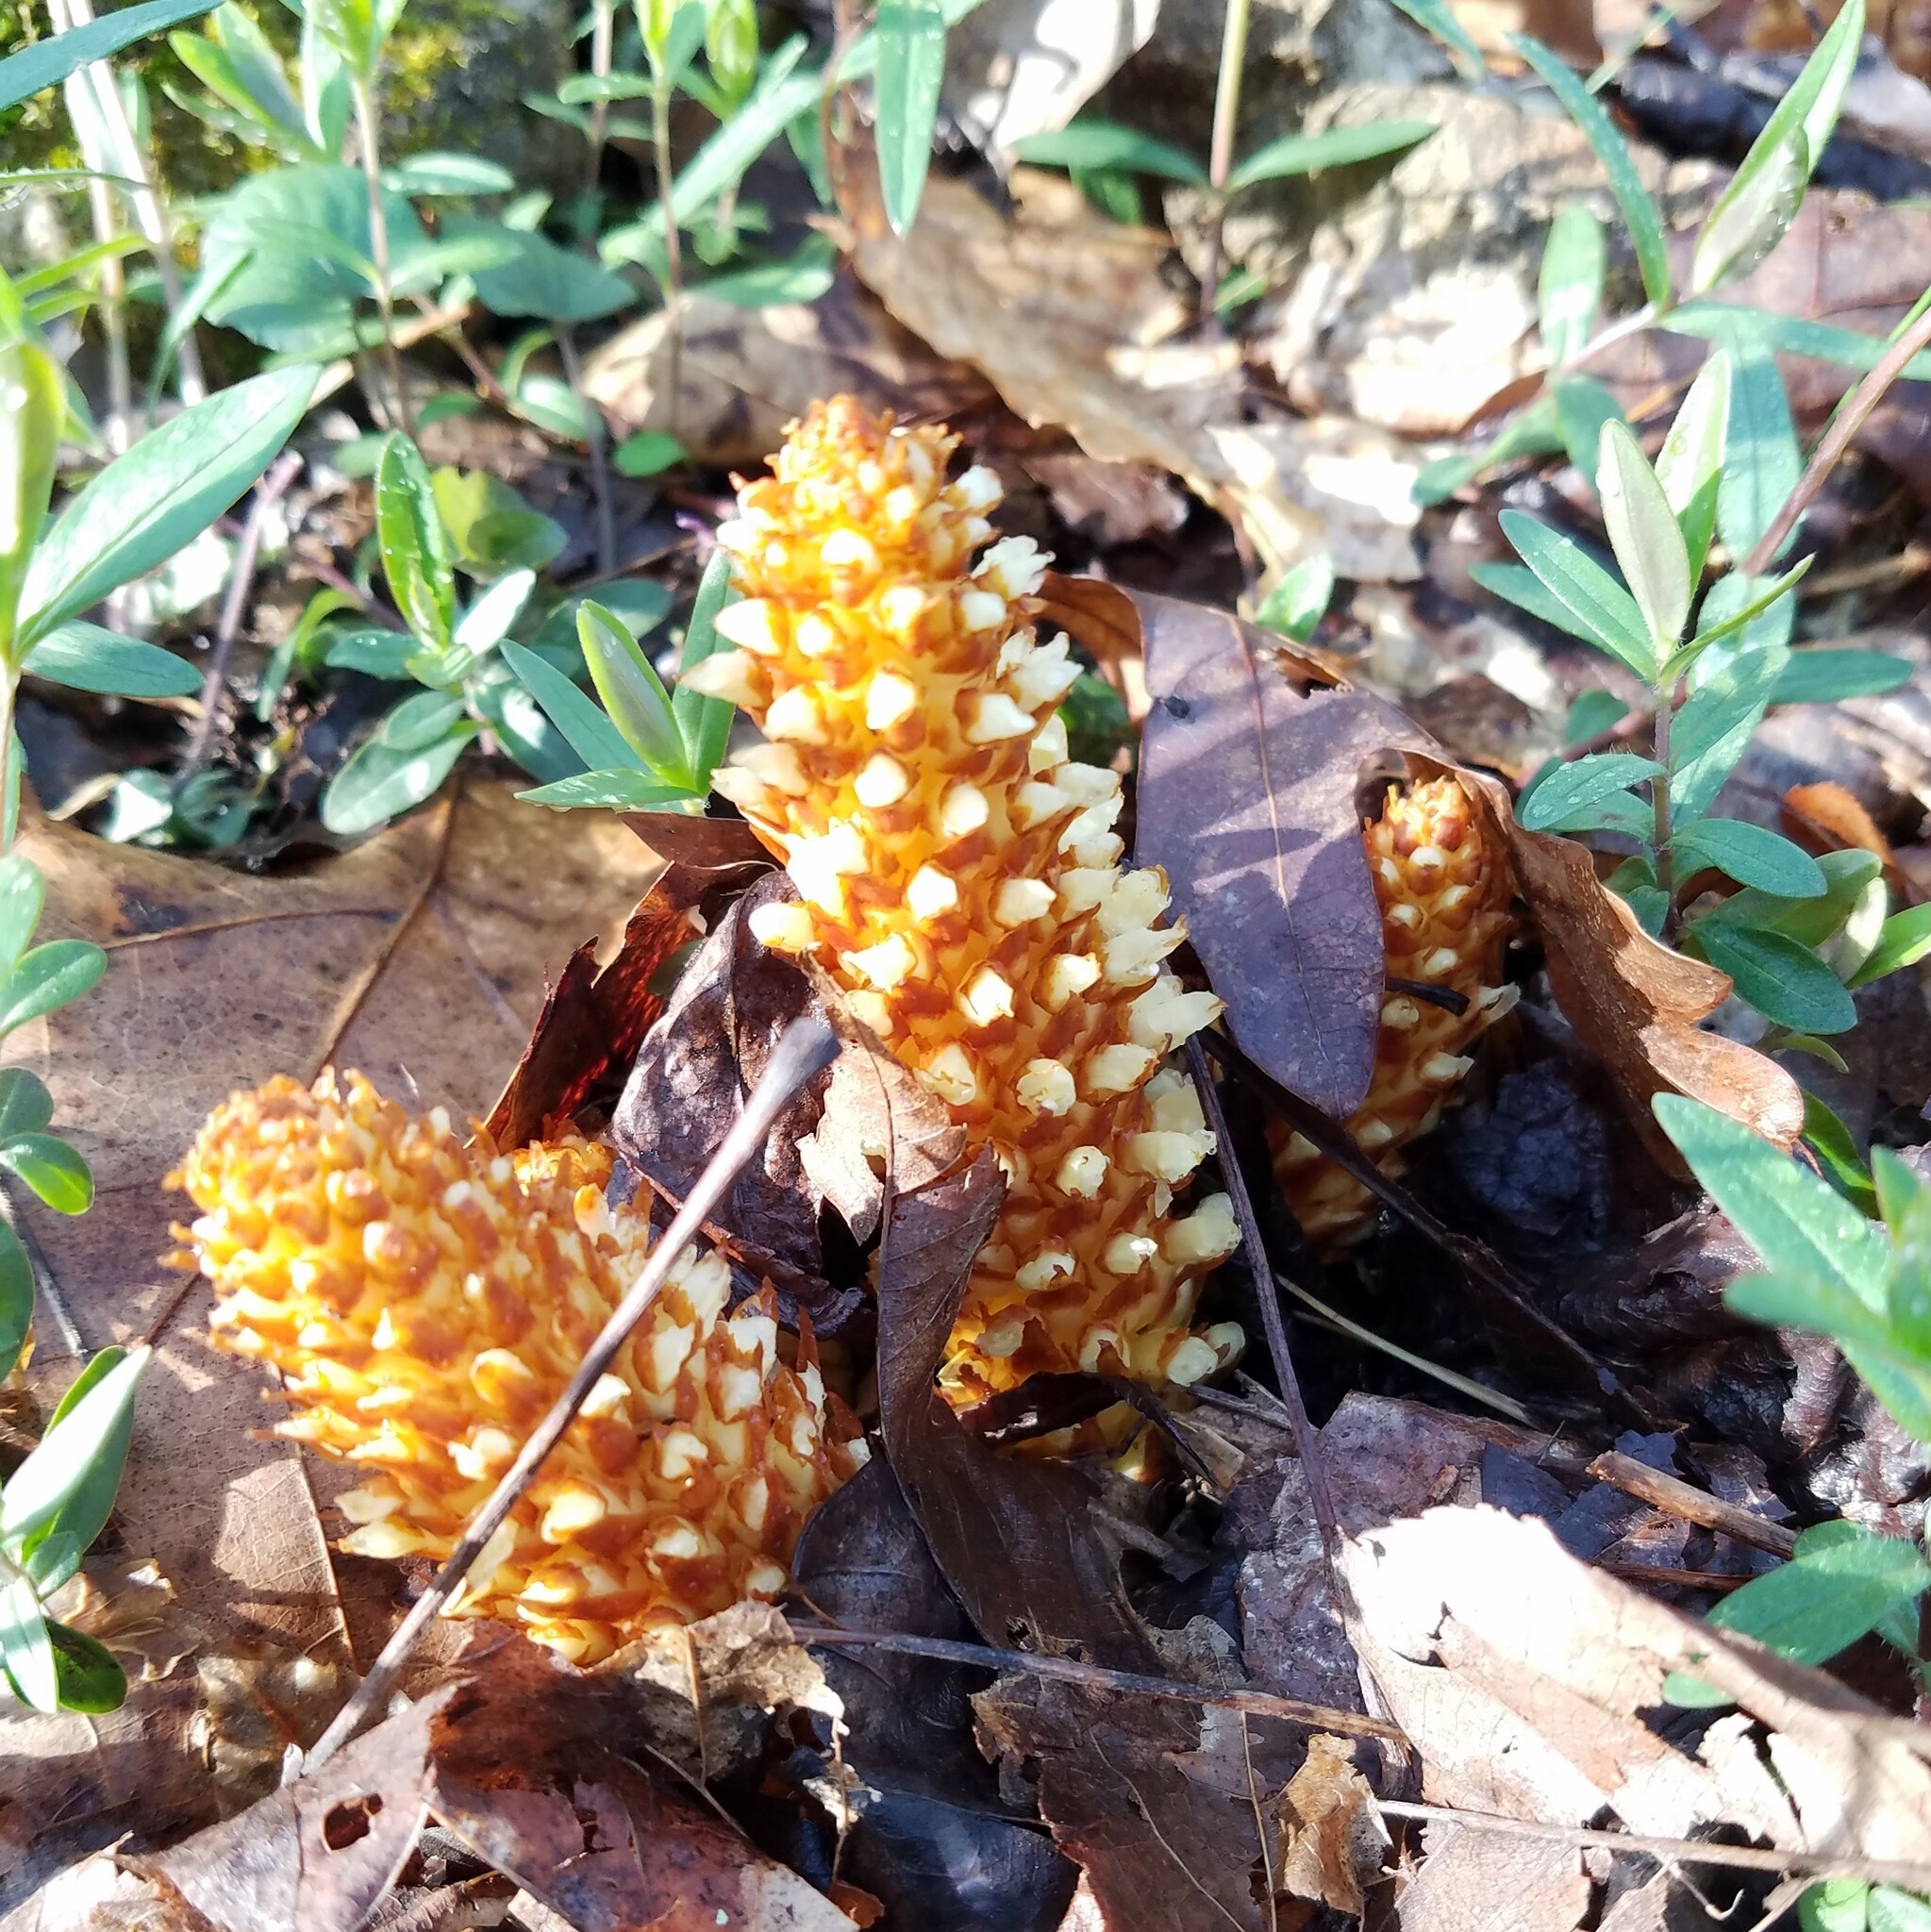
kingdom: Plantae
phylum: Tracheophyta
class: Magnoliopsida
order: Lamiales
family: Orobanchaceae
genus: Conopholis
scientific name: Conopholis americana
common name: American cancer-root
